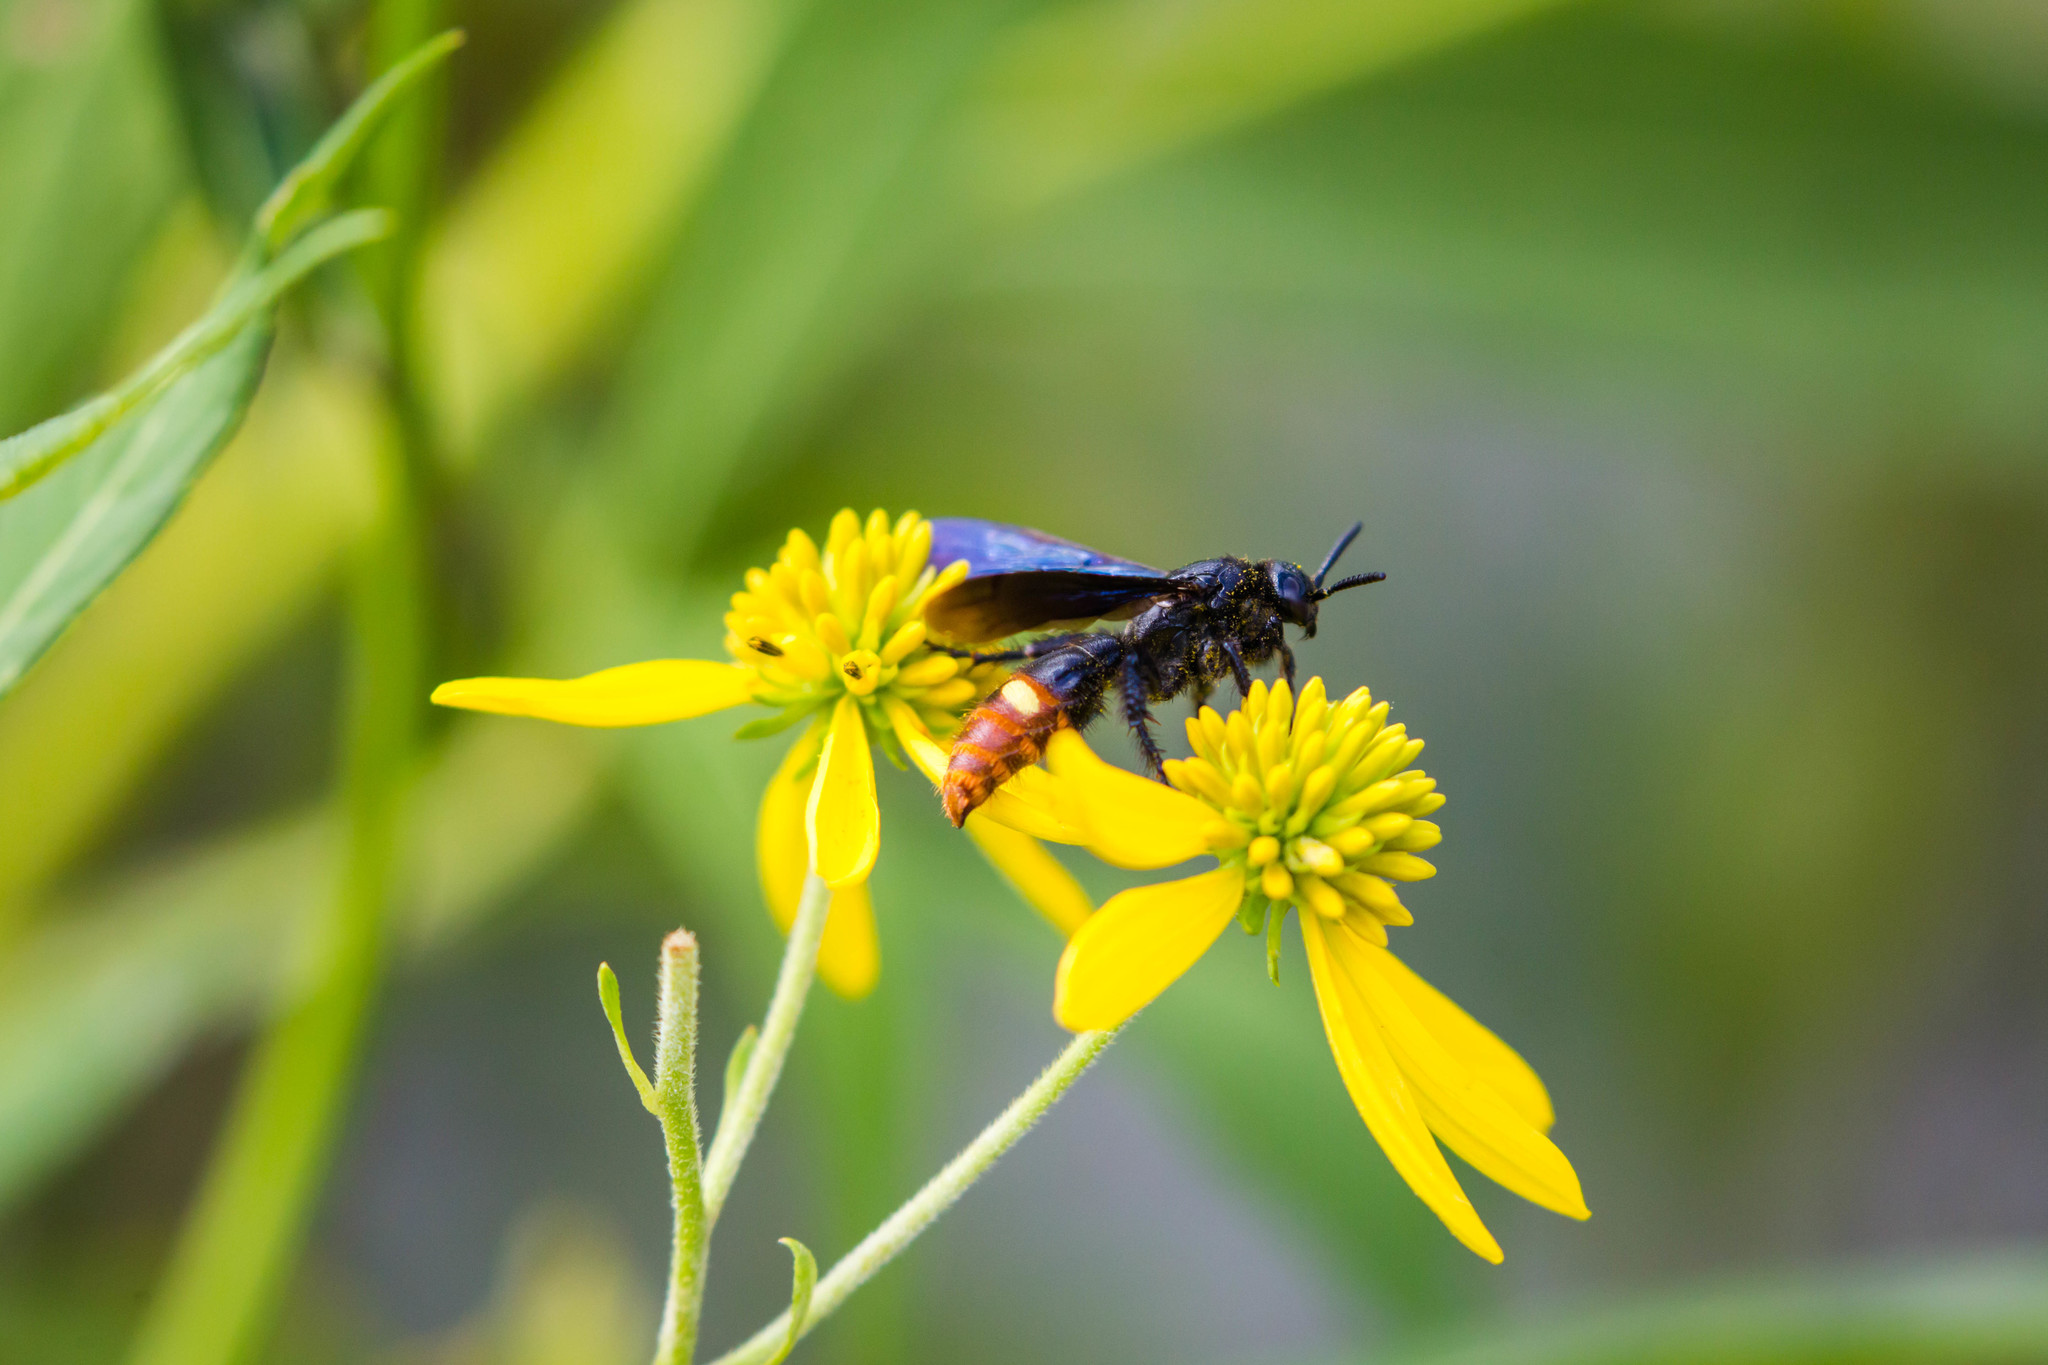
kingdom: Animalia
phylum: Arthropoda
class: Insecta
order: Hymenoptera
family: Scoliidae
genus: Scolia
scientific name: Scolia dubia
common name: Blue-winged scoliid wasp
